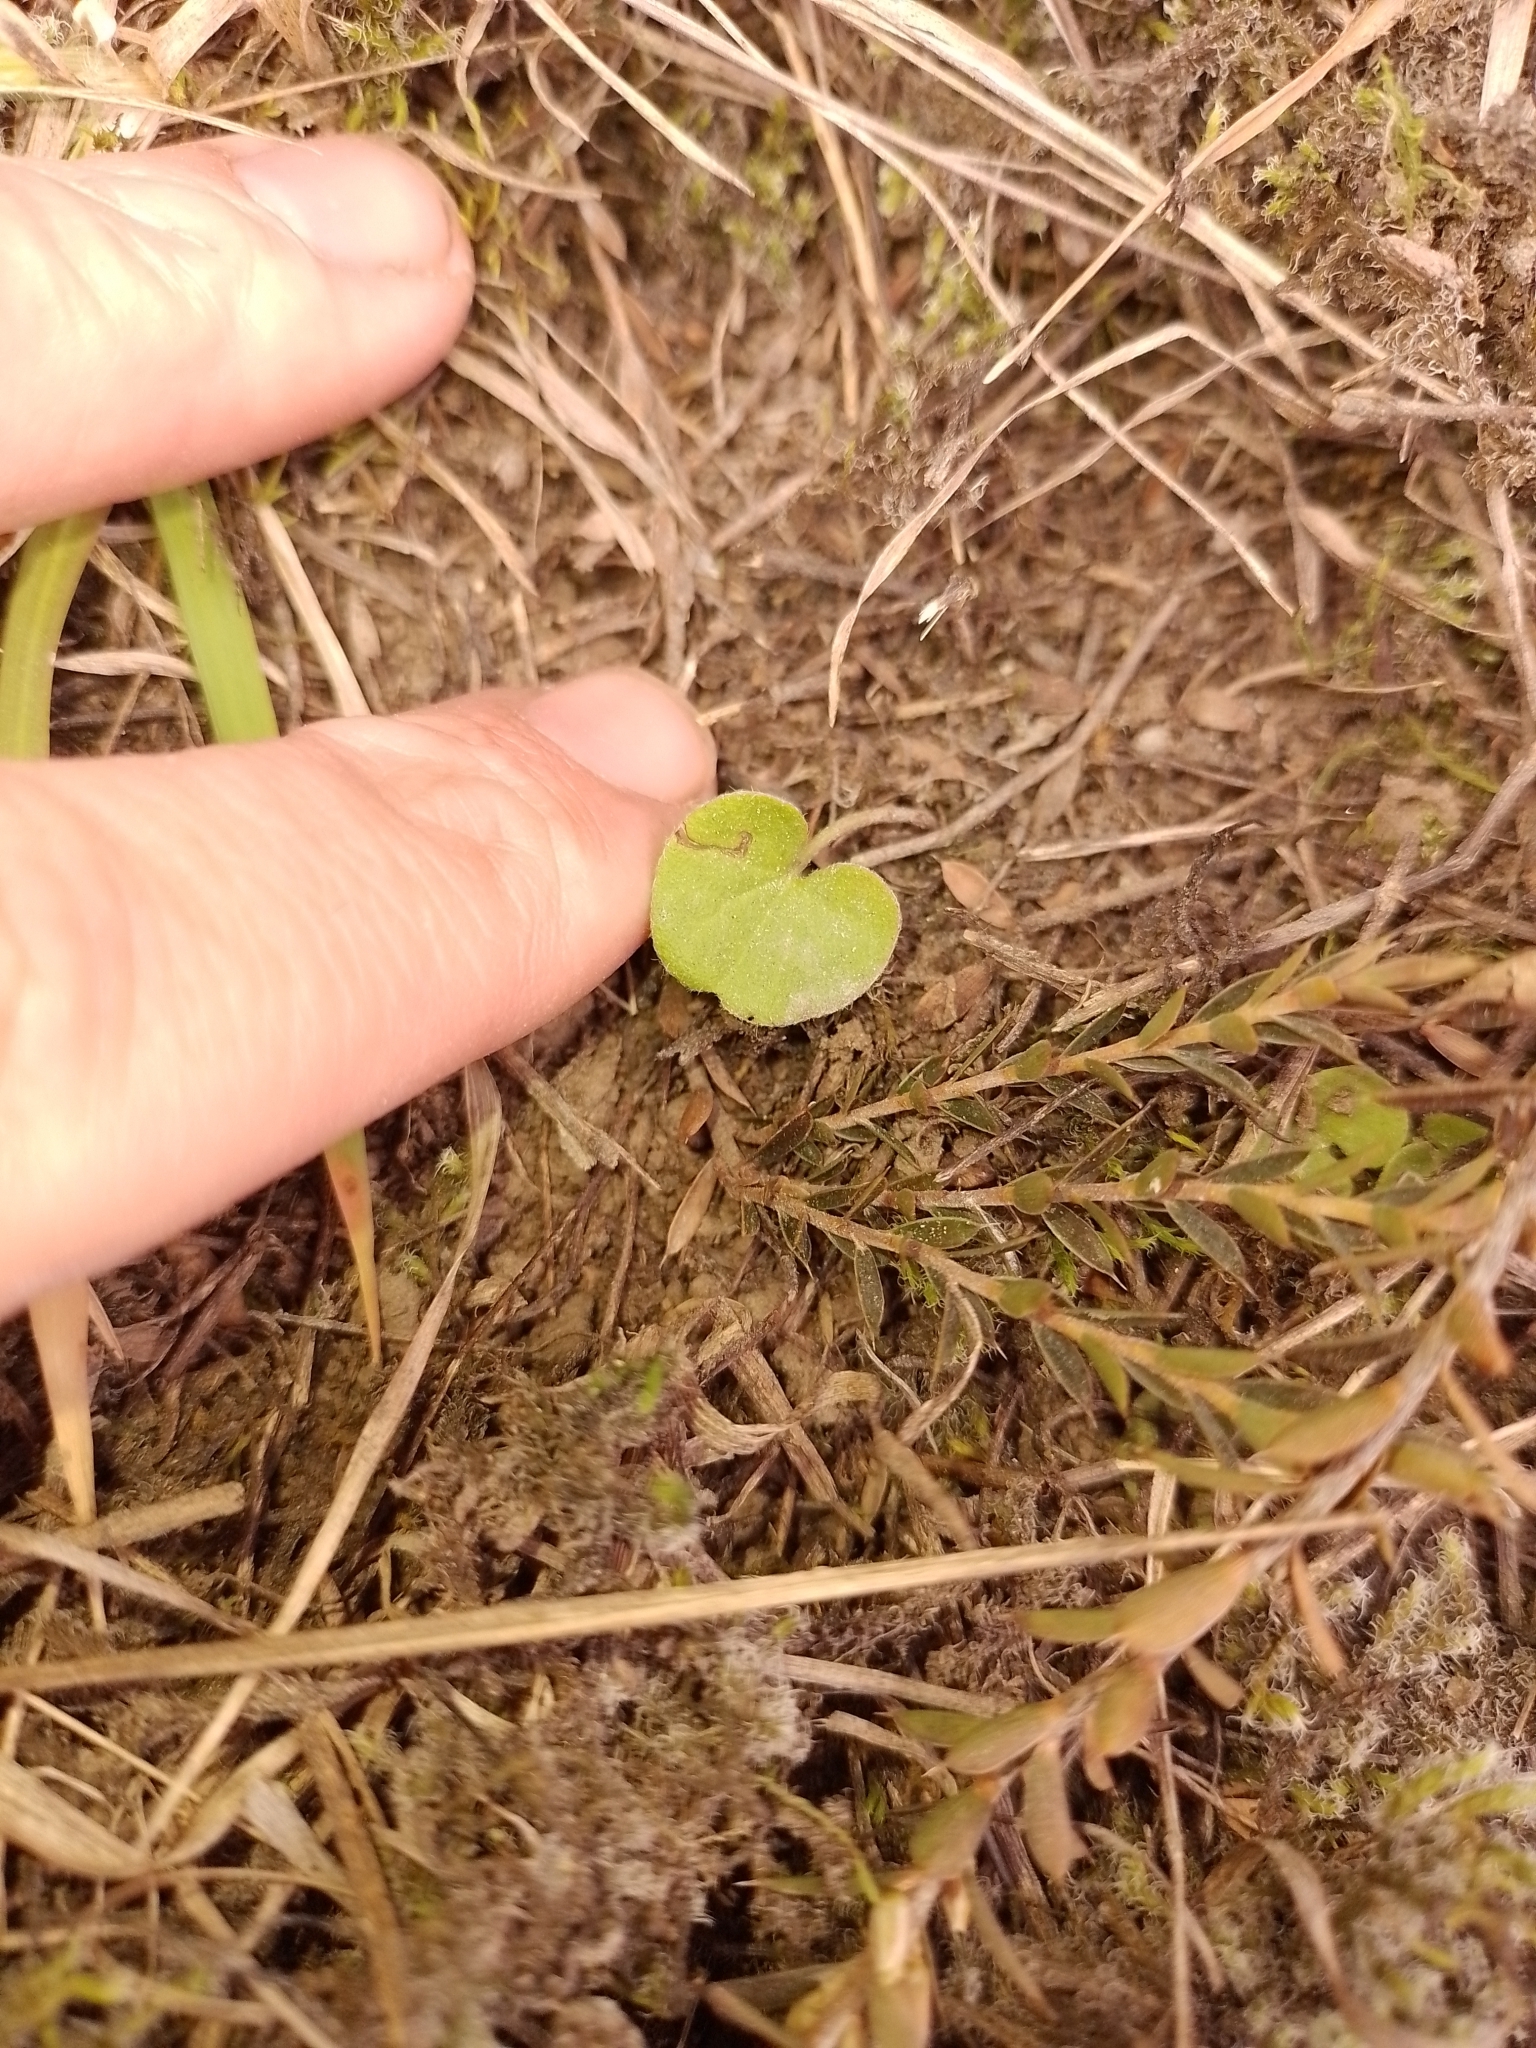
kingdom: Plantae
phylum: Tracheophyta
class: Magnoliopsida
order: Solanales
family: Convolvulaceae
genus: Dichondra
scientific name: Dichondra repens
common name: Kidneyweed
